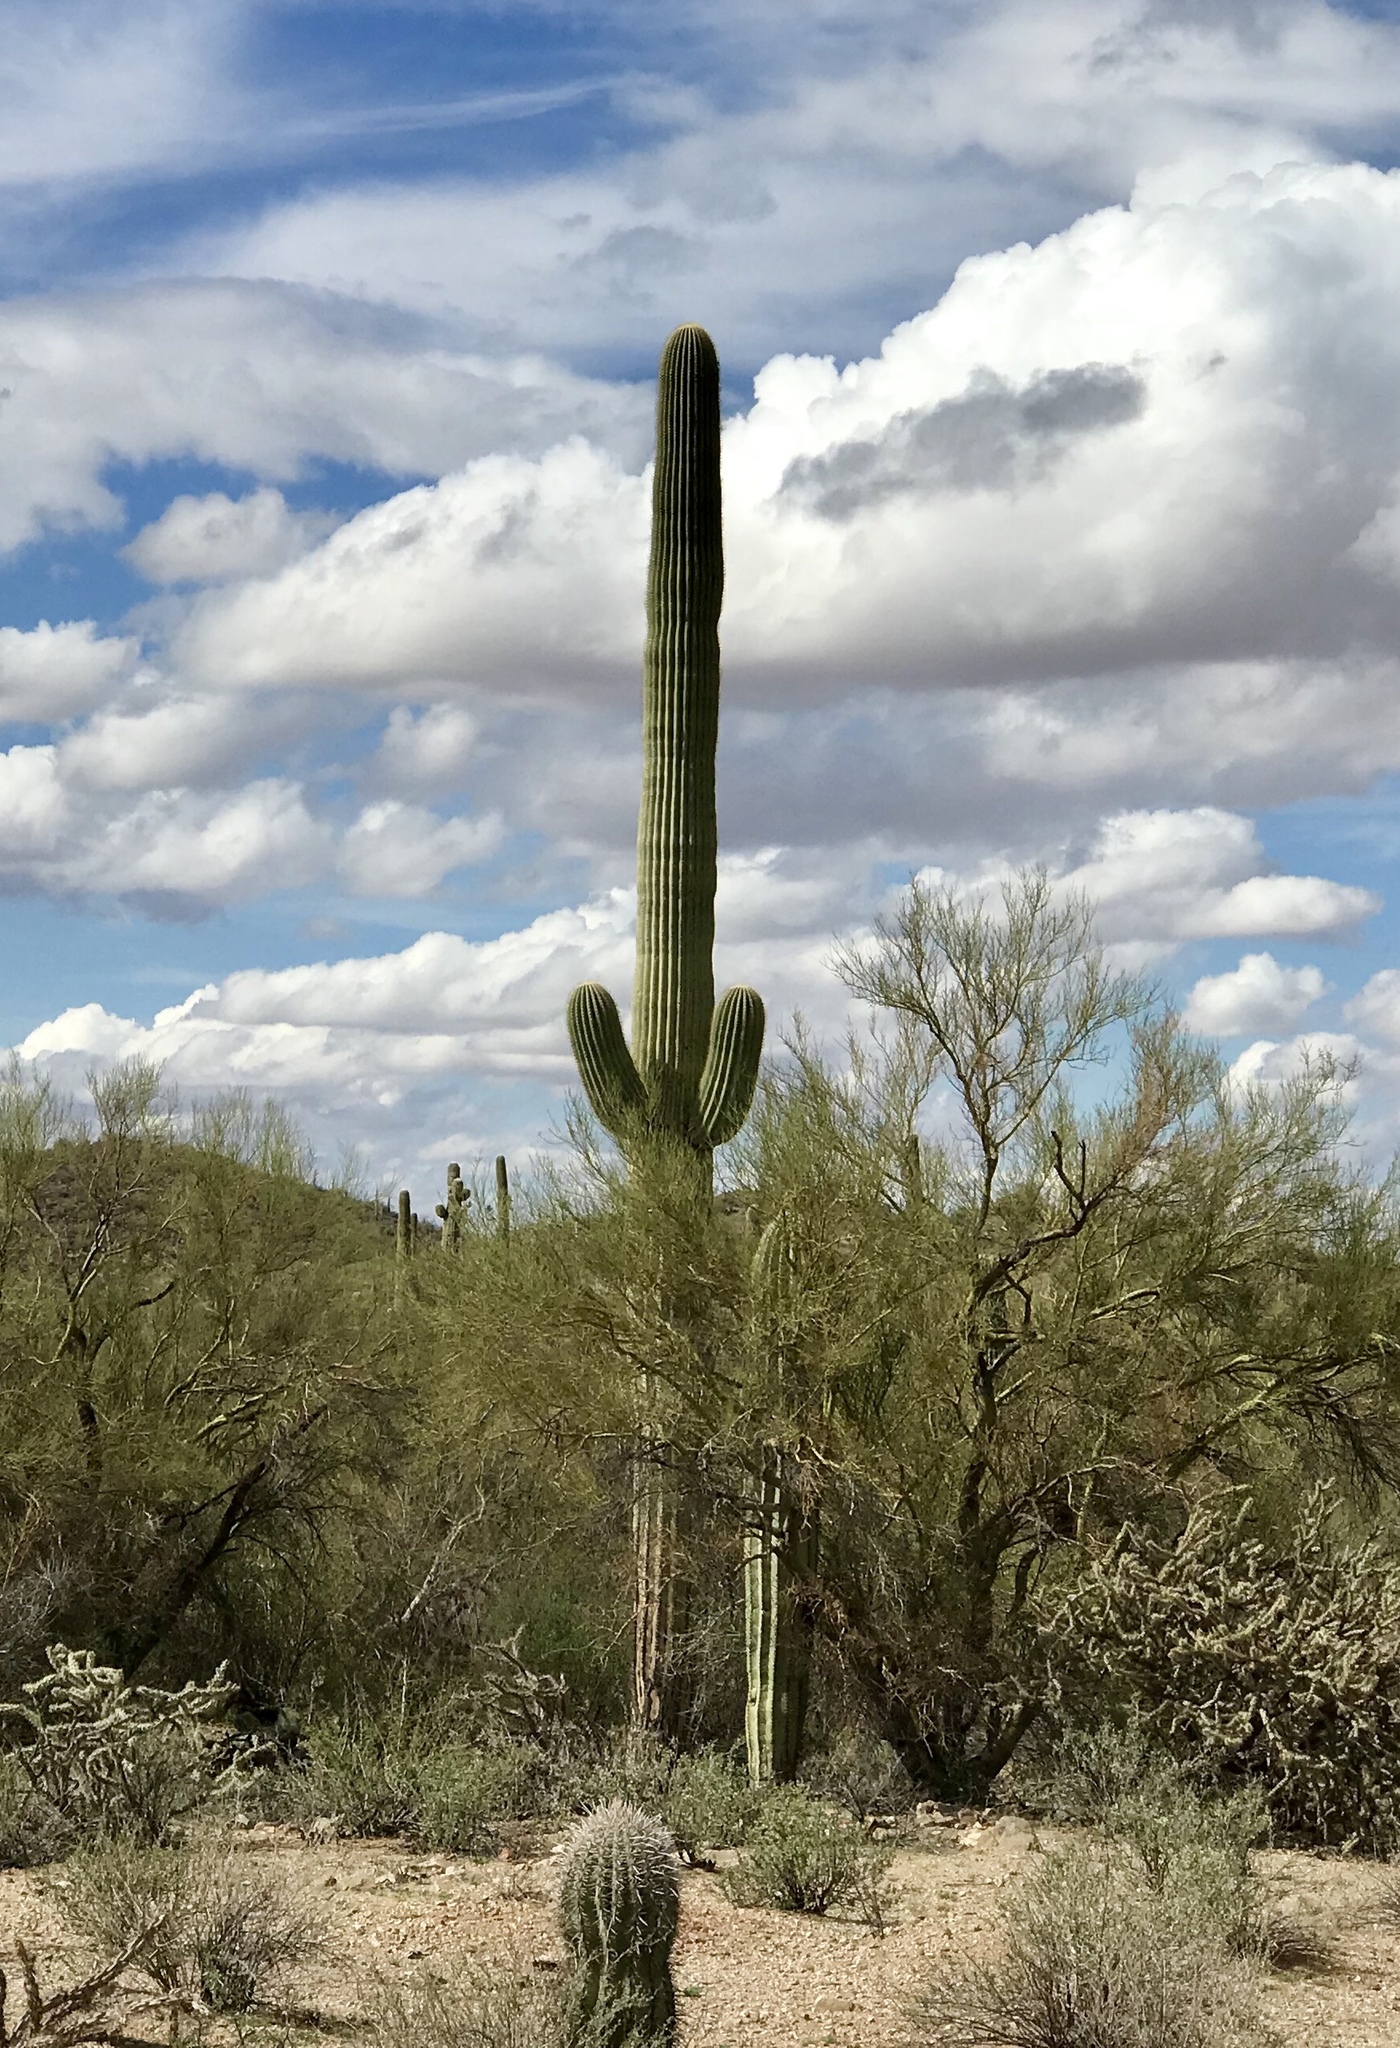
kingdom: Plantae
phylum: Tracheophyta
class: Magnoliopsida
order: Caryophyllales
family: Cactaceae
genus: Carnegiea
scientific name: Carnegiea gigantea
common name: Saguaro
